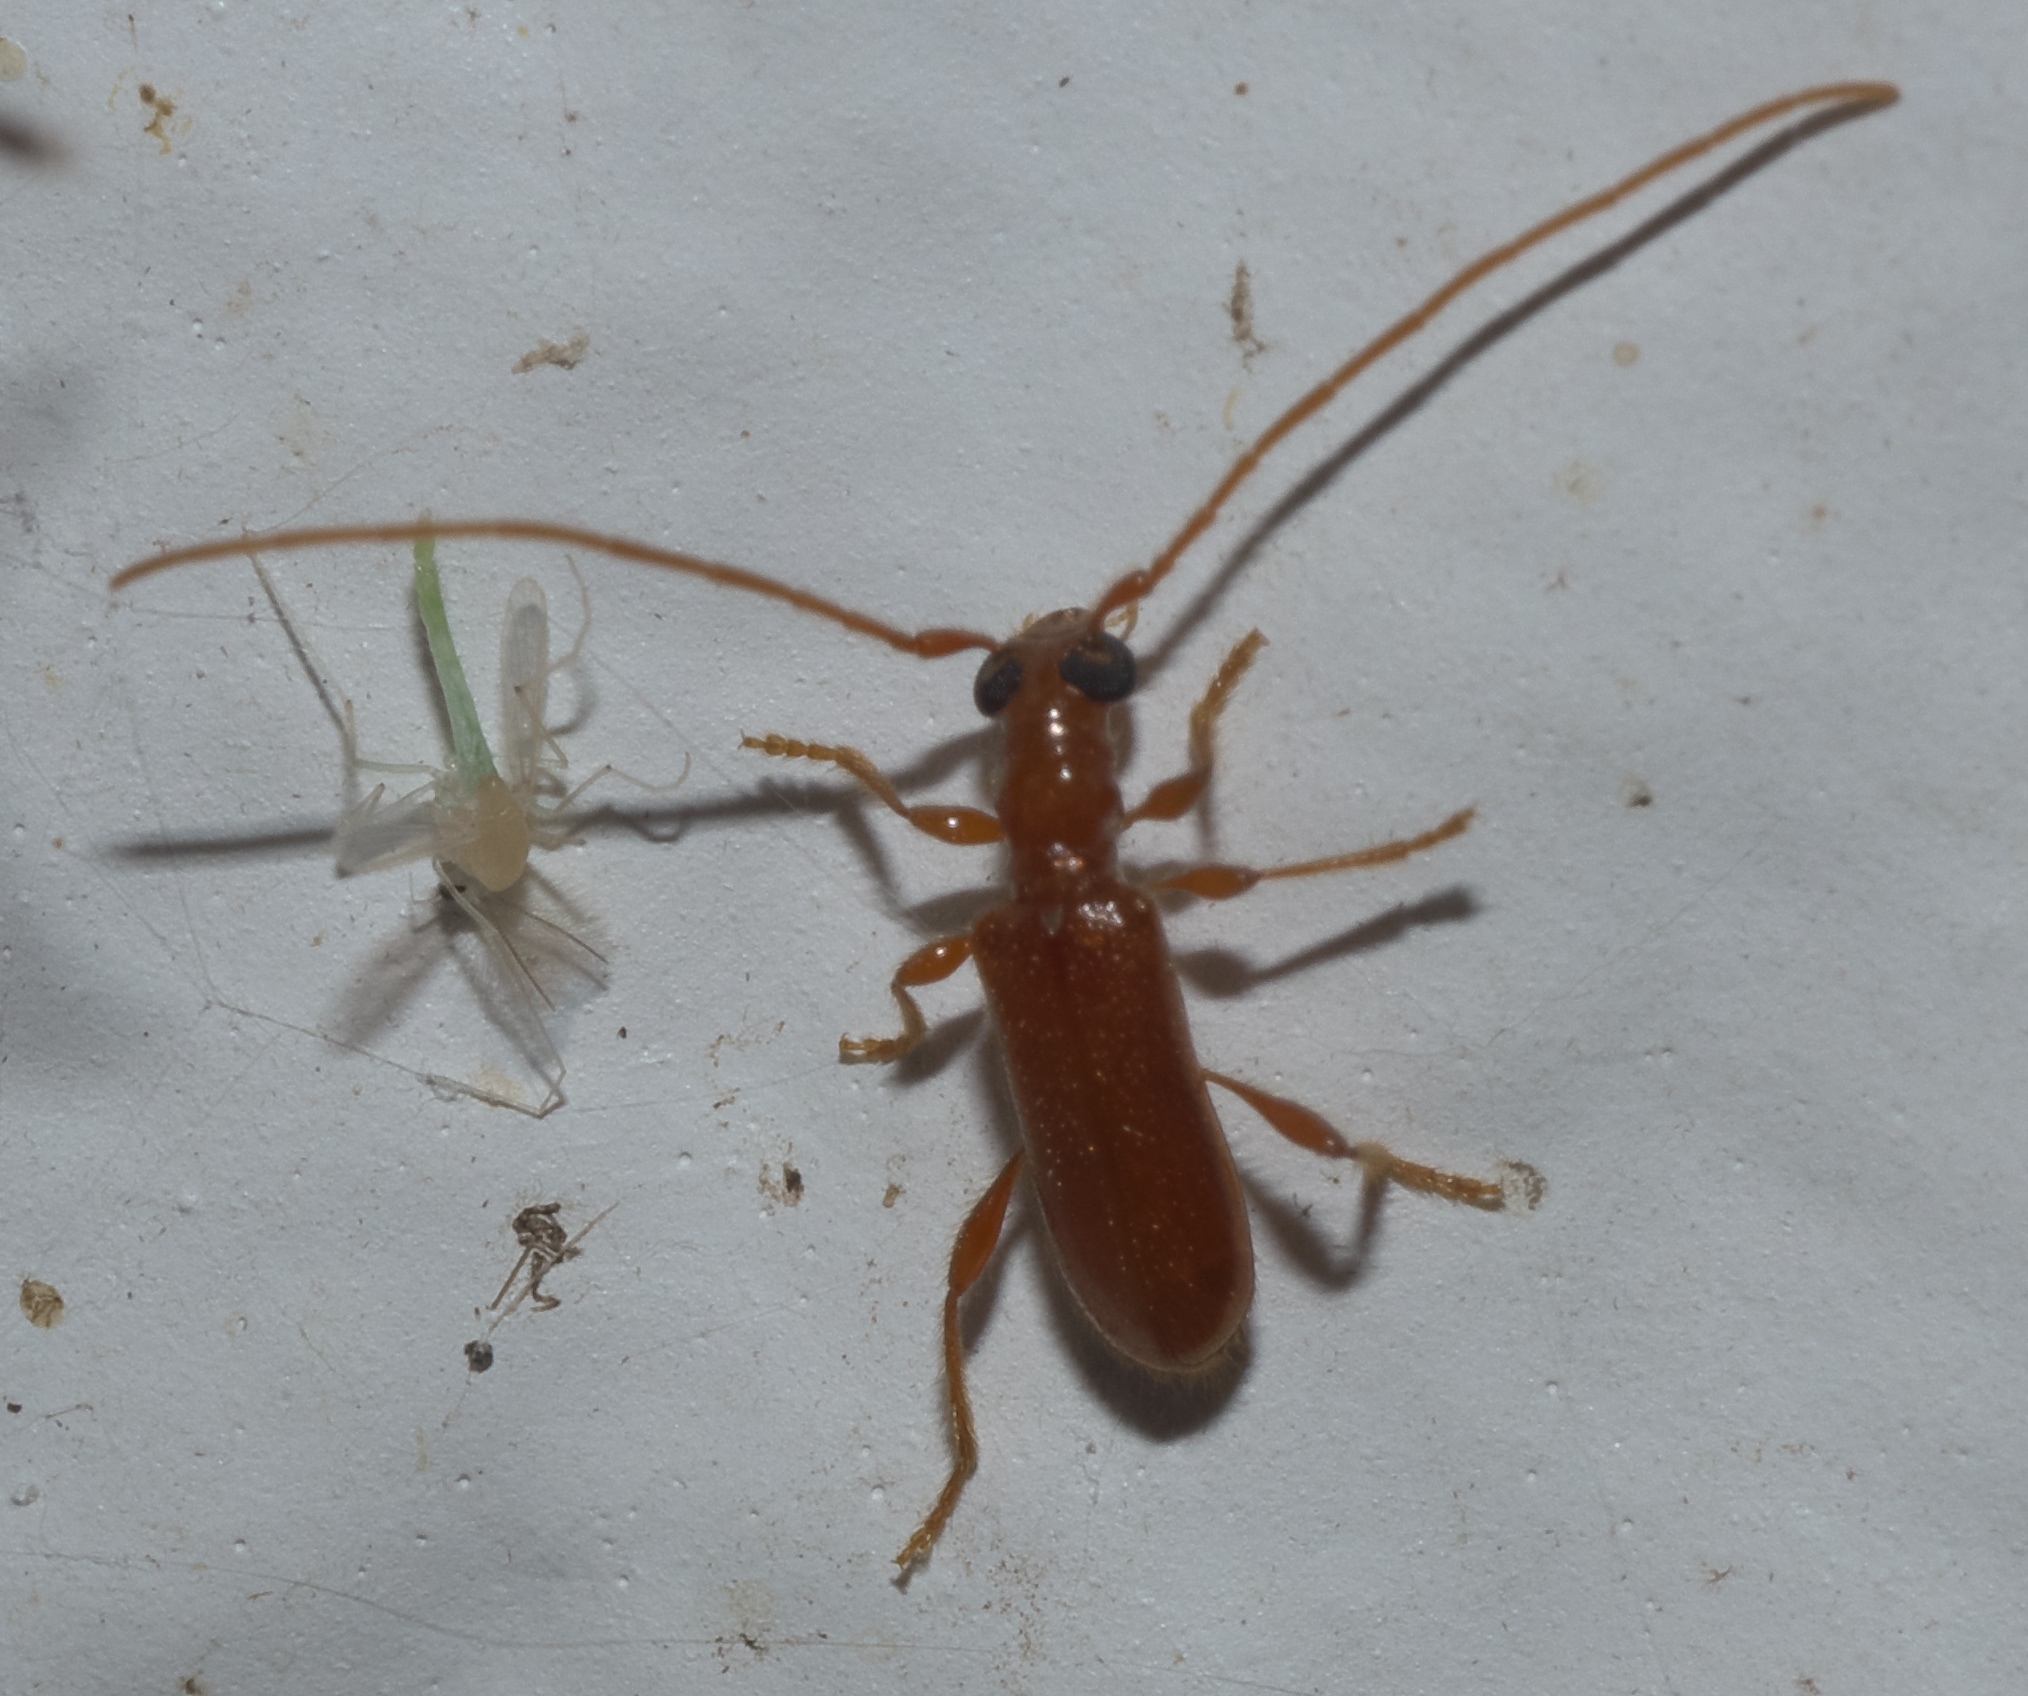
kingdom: Animalia
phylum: Arthropoda
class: Insecta
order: Coleoptera
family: Cerambycidae
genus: Obrium
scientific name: Obrium rufulum
